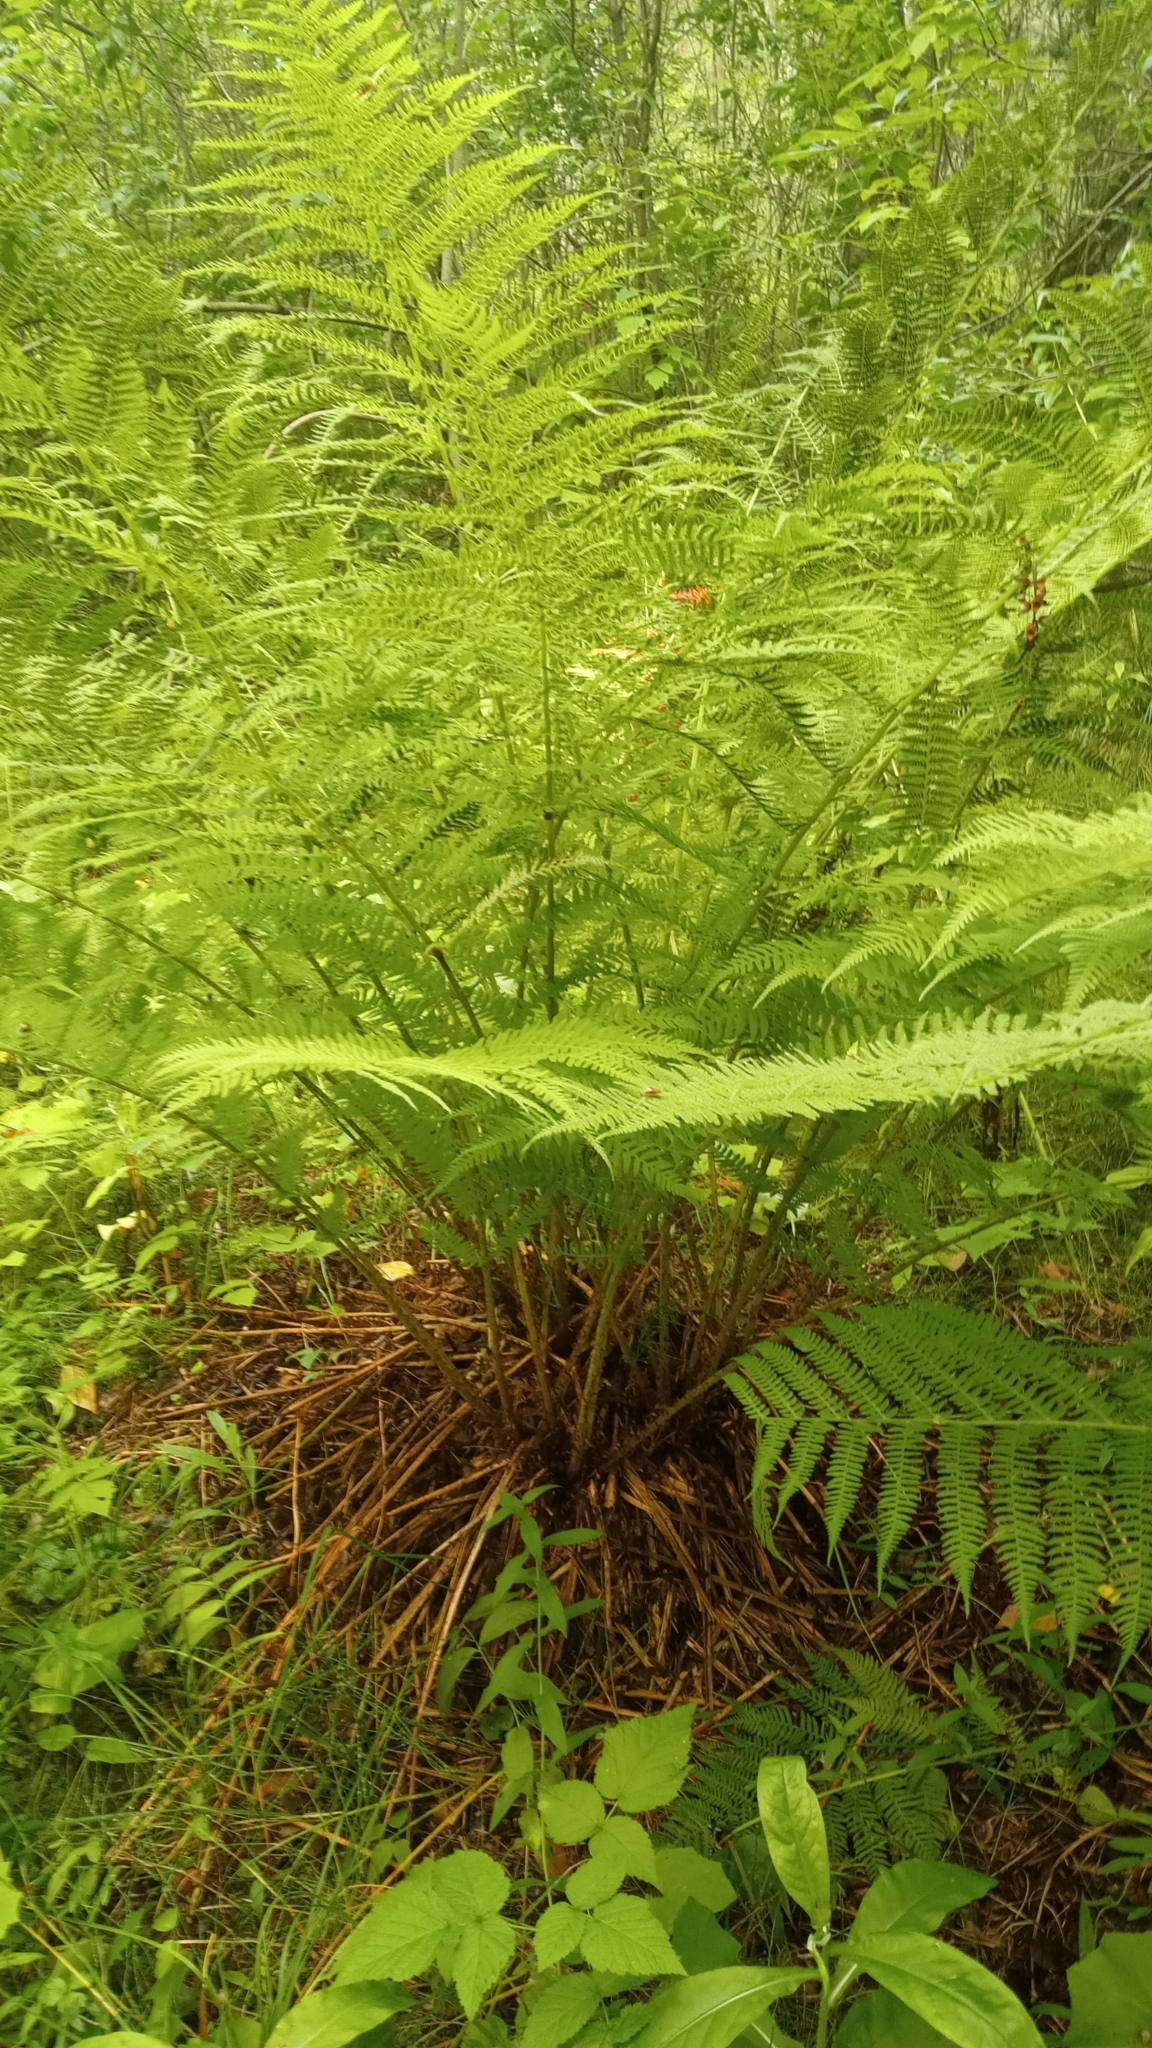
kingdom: Plantae
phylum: Tracheophyta
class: Polypodiopsida
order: Polypodiales
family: Athyriaceae
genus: Athyrium
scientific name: Athyrium filix-femina
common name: Lady fern
